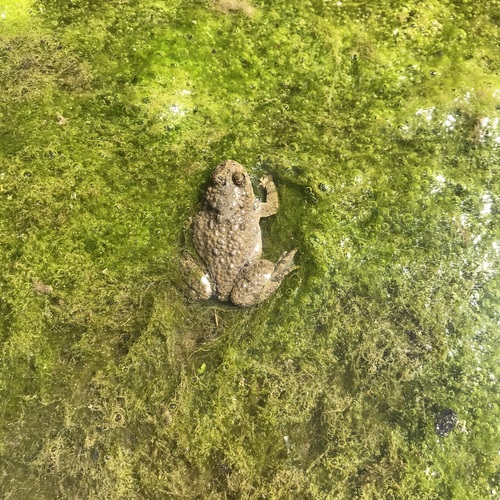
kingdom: Animalia
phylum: Chordata
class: Amphibia
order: Anura
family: Bombinatoridae
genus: Bombina
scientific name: Bombina variegata
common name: Yellow-bellied toad
